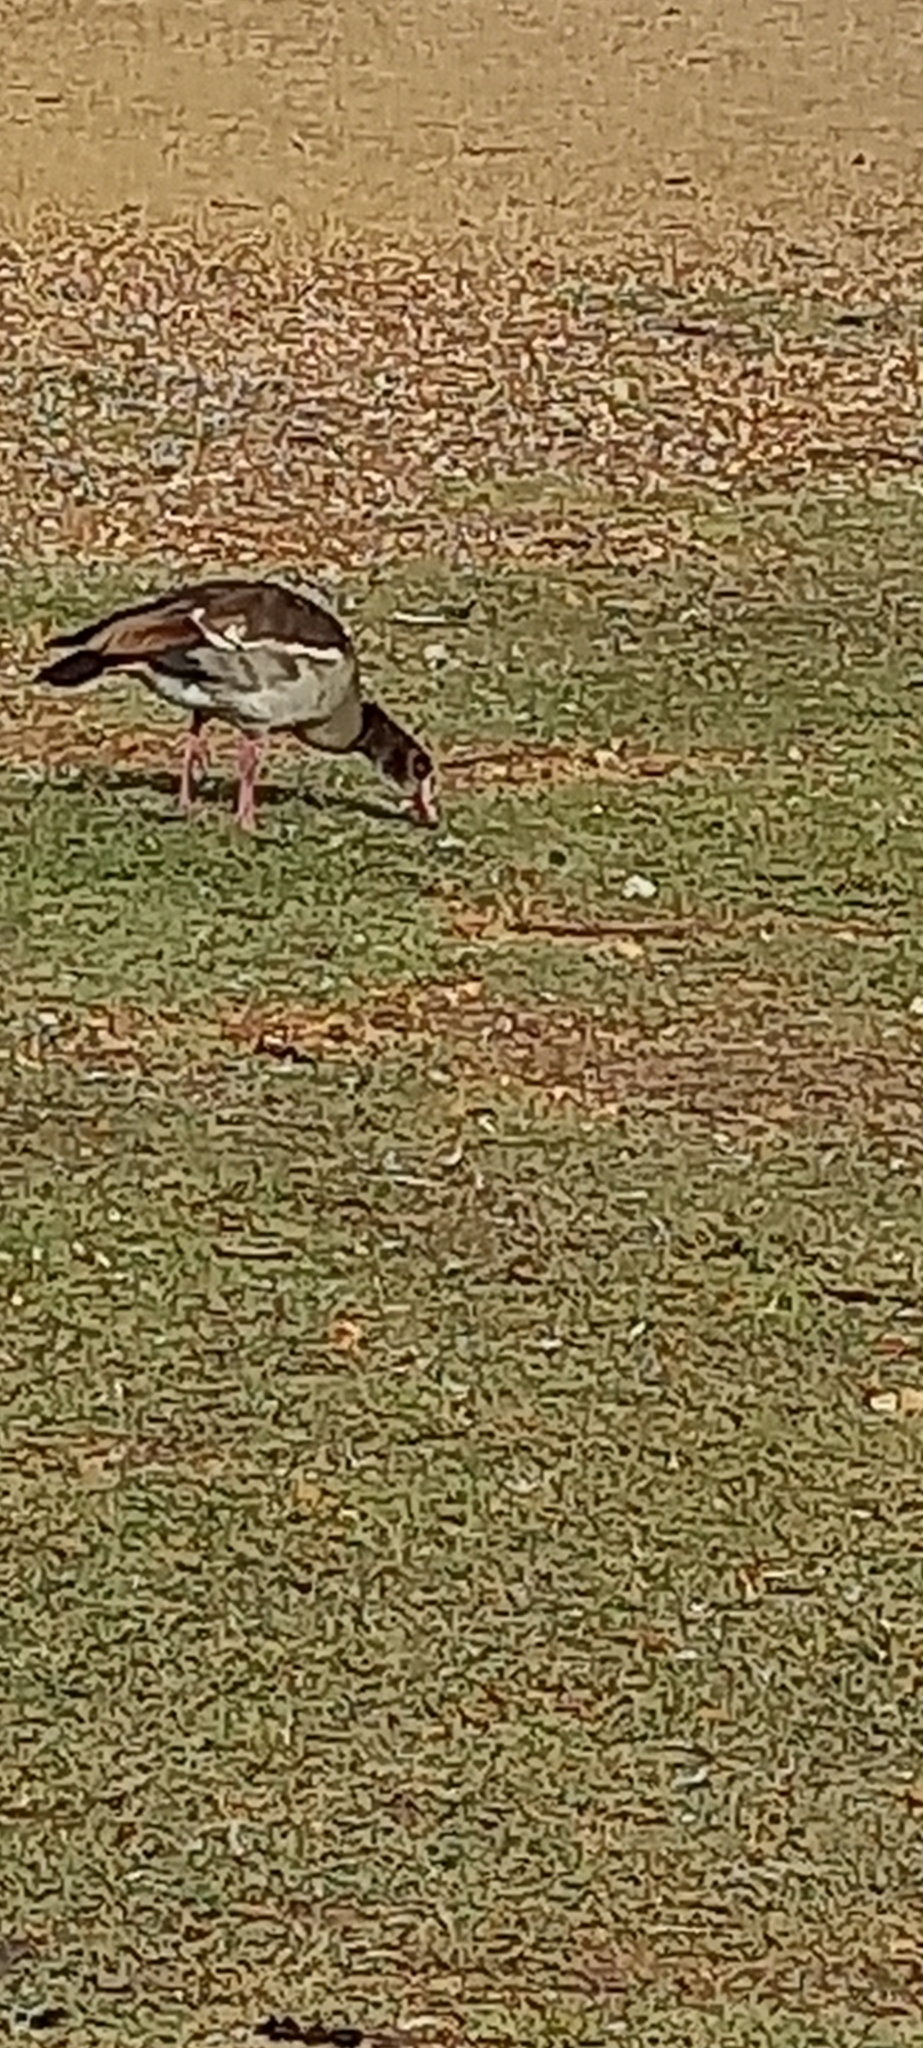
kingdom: Animalia
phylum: Chordata
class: Aves
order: Anseriformes
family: Anatidae
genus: Alopochen
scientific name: Alopochen aegyptiaca
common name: Egyptian goose
